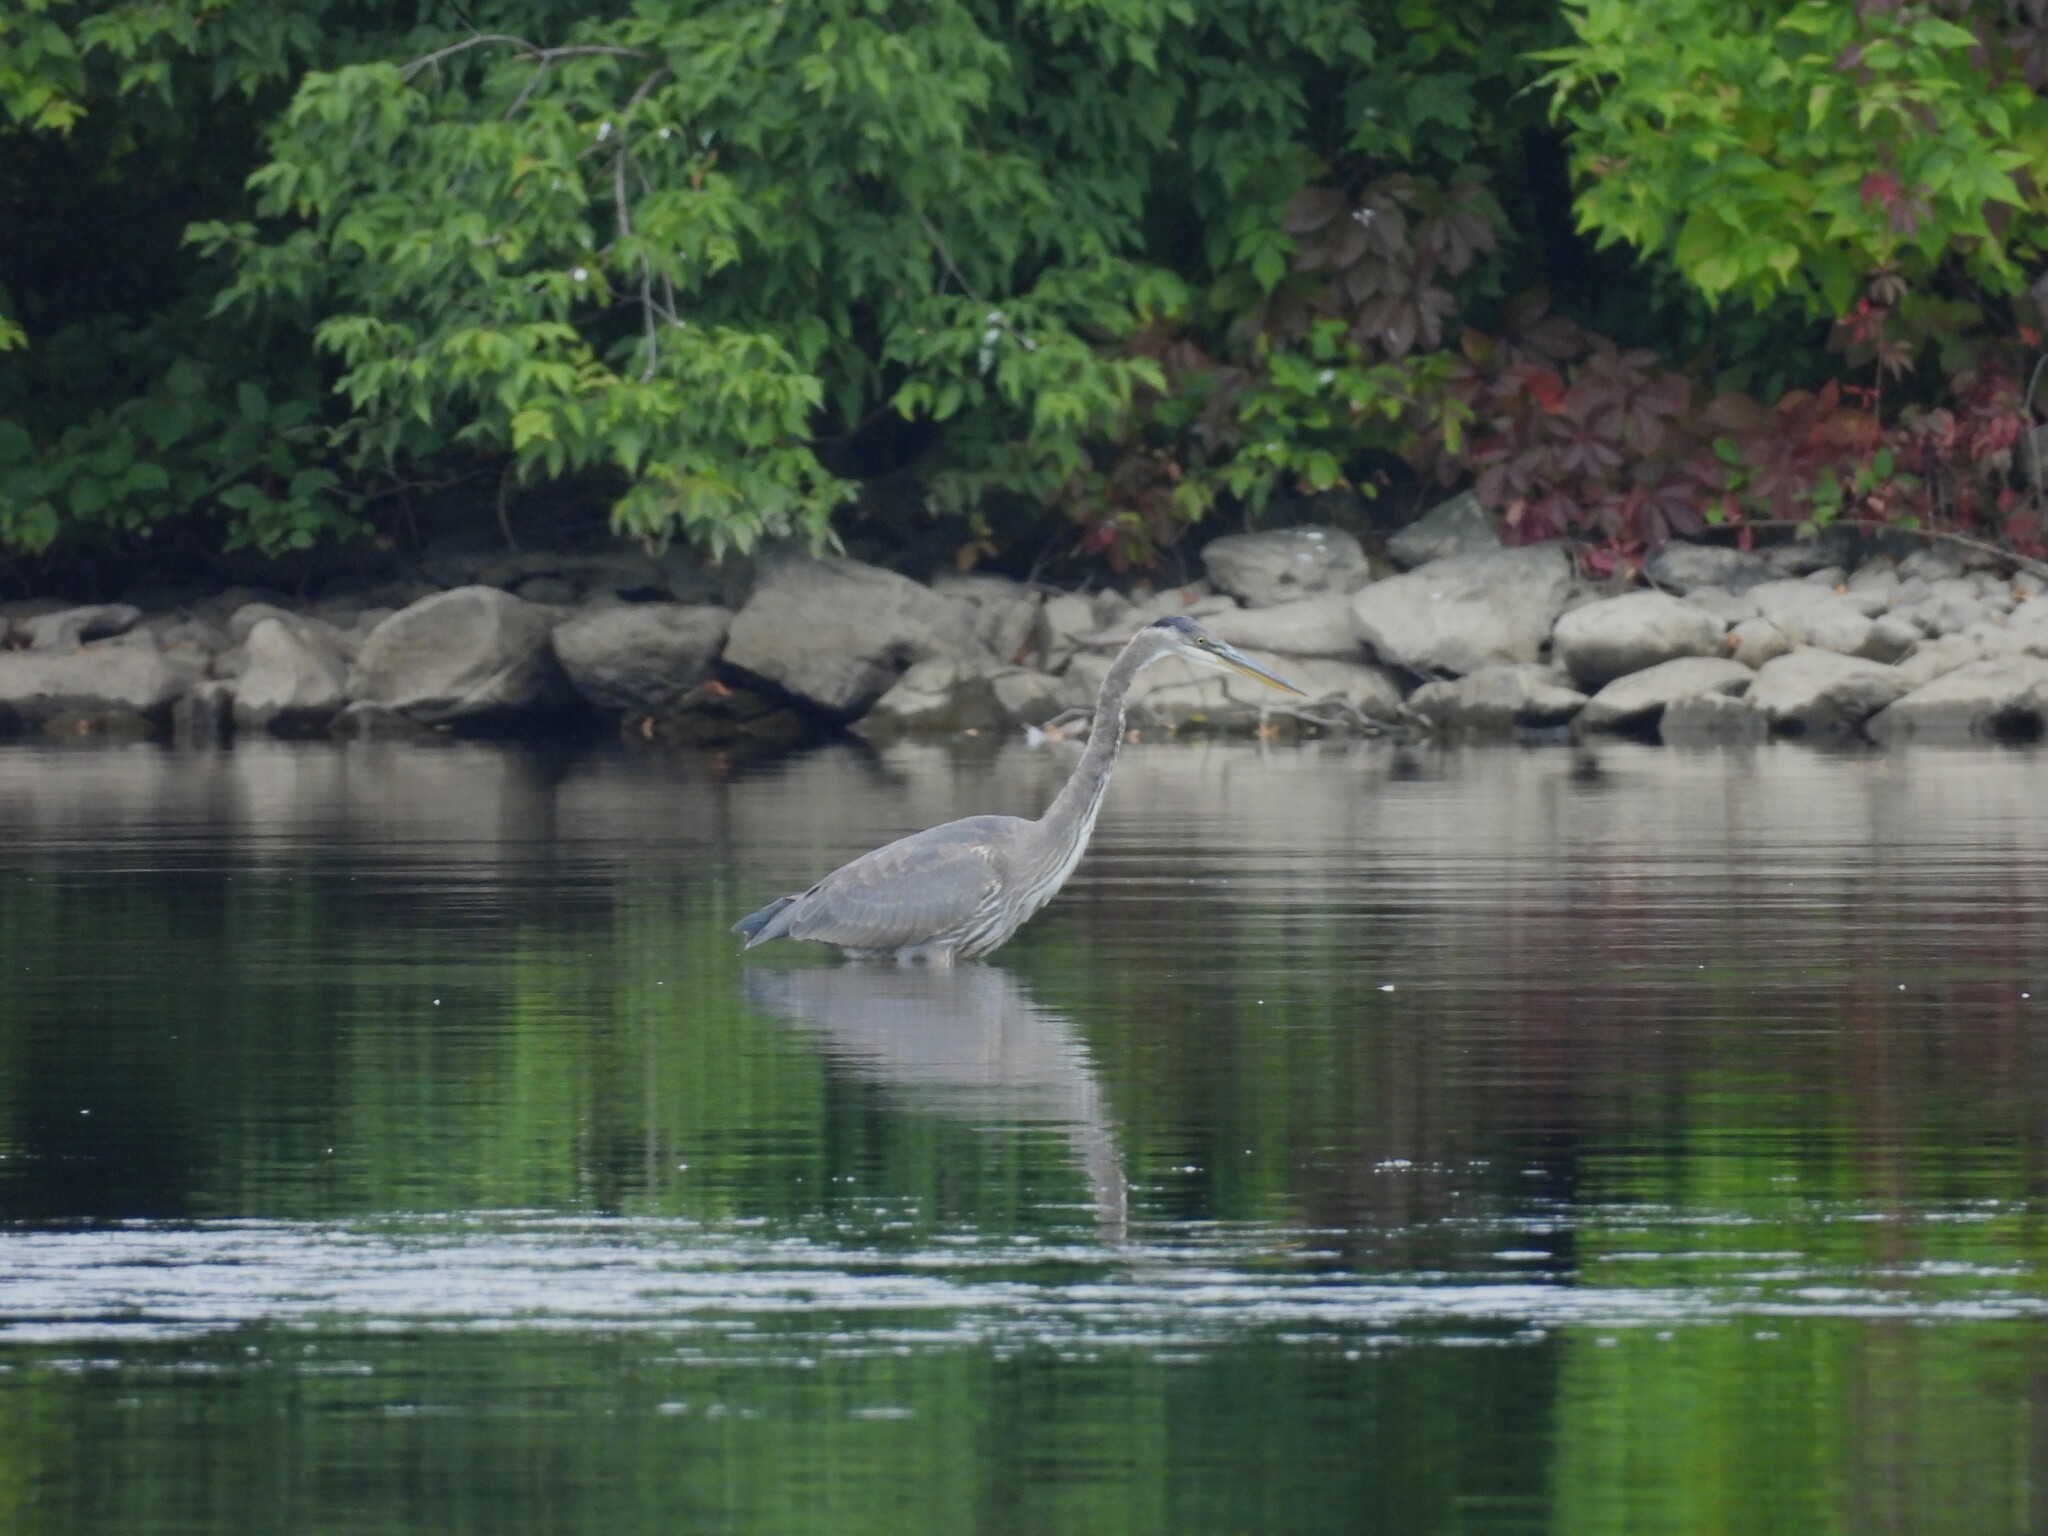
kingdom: Animalia
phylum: Chordata
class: Aves
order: Pelecaniformes
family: Ardeidae
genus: Ardea
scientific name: Ardea herodias
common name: Great blue heron
